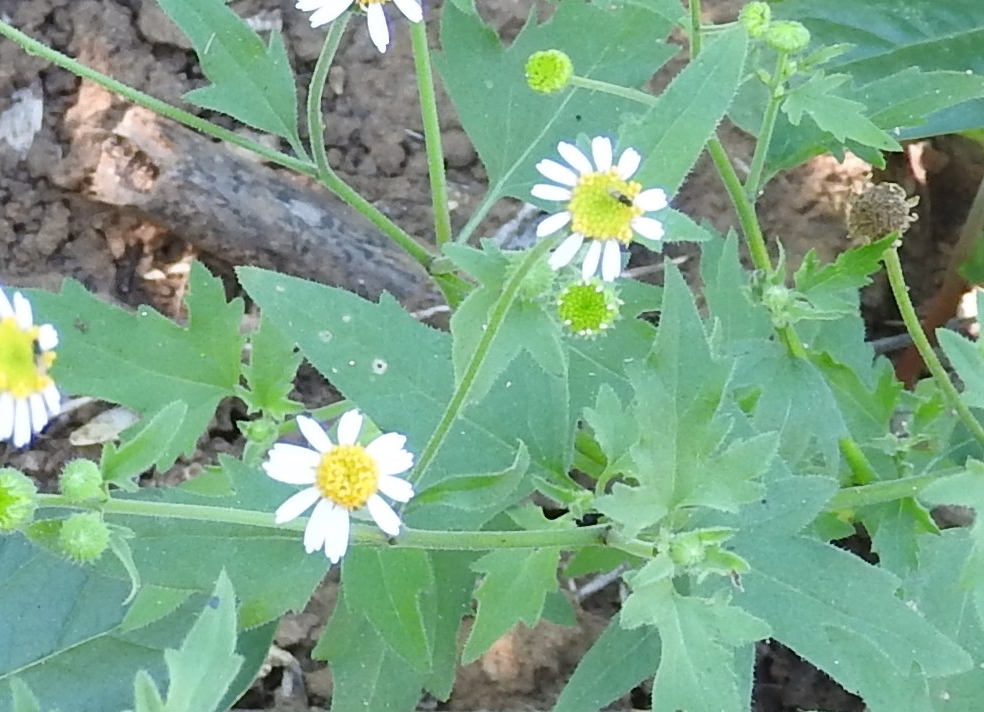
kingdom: Plantae
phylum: Tracheophyta
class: Magnoliopsida
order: Asterales
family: Asteraceae
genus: Galinsogeopsis
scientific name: Galinsogeopsis spilanthoides
